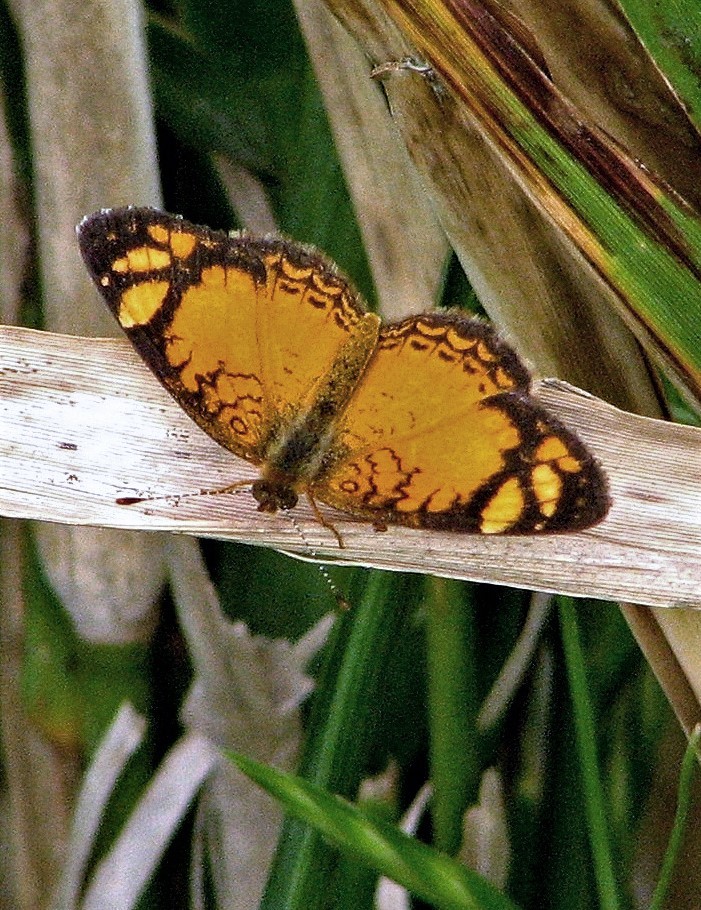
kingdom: Animalia
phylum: Arthropoda
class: Insecta
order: Lepidoptera
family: Nymphalidae
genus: Tegosa
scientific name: Tegosa orobia
